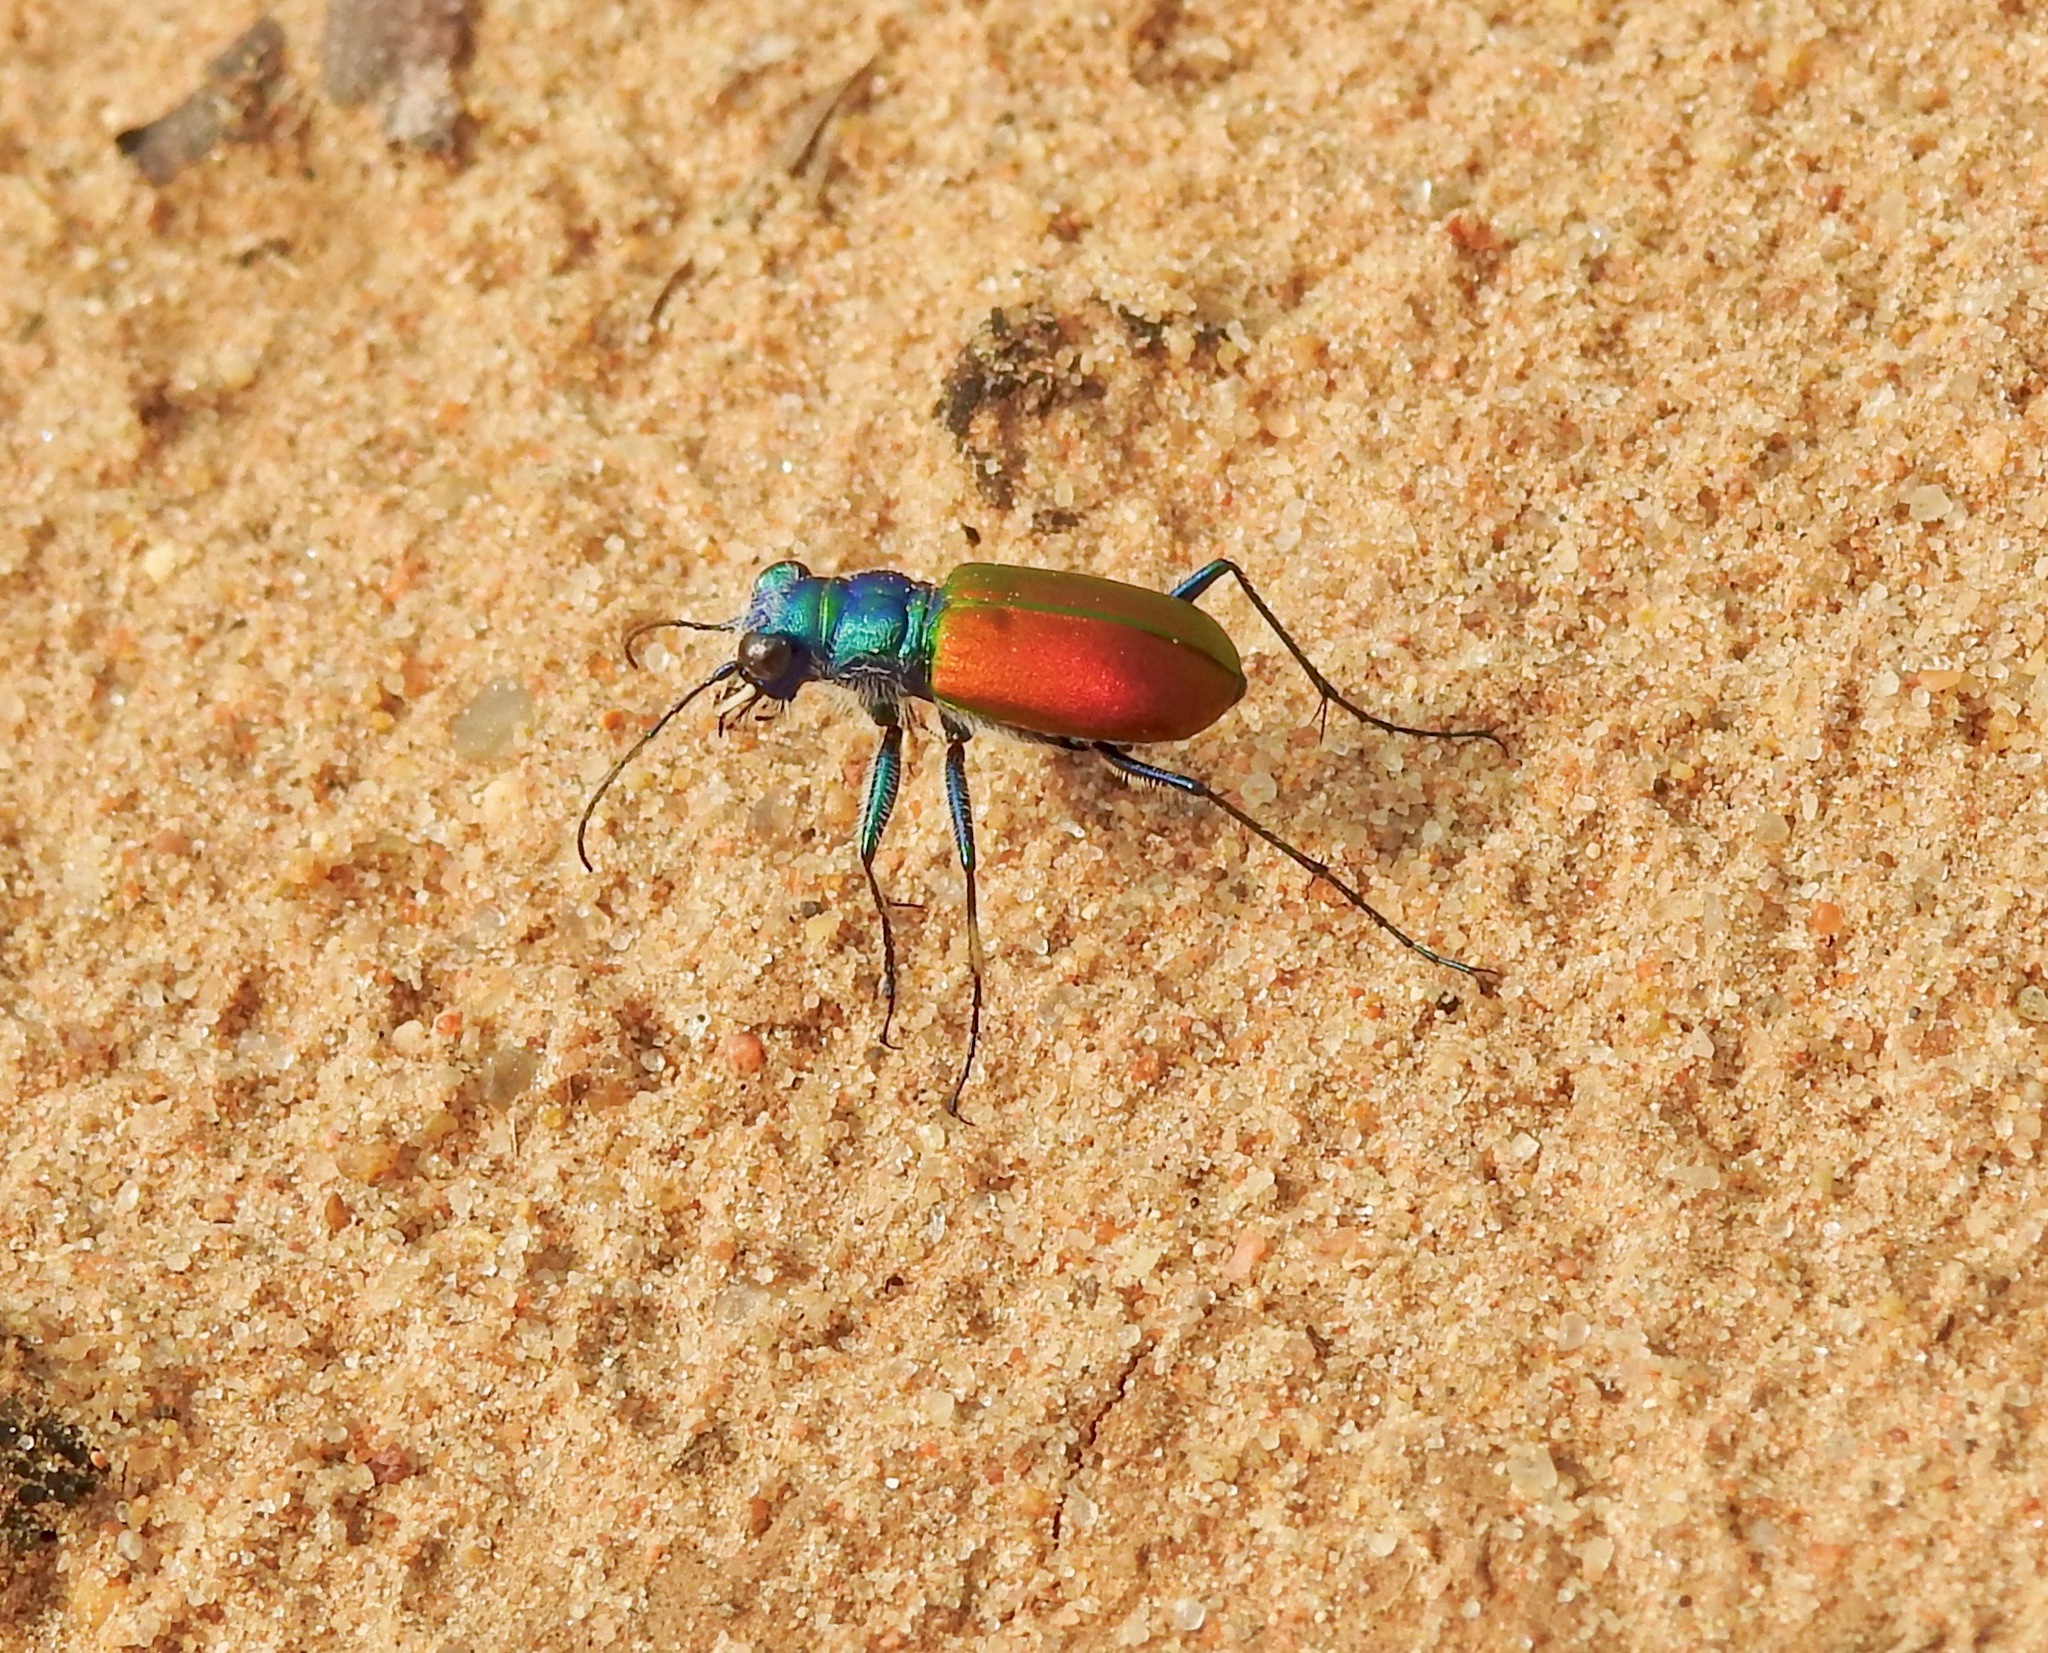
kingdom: Animalia
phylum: Arthropoda
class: Insecta
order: Coleoptera
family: Carabidae
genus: Cicindela
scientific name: Cicindela scutellaris
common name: Festive tiger beetle
